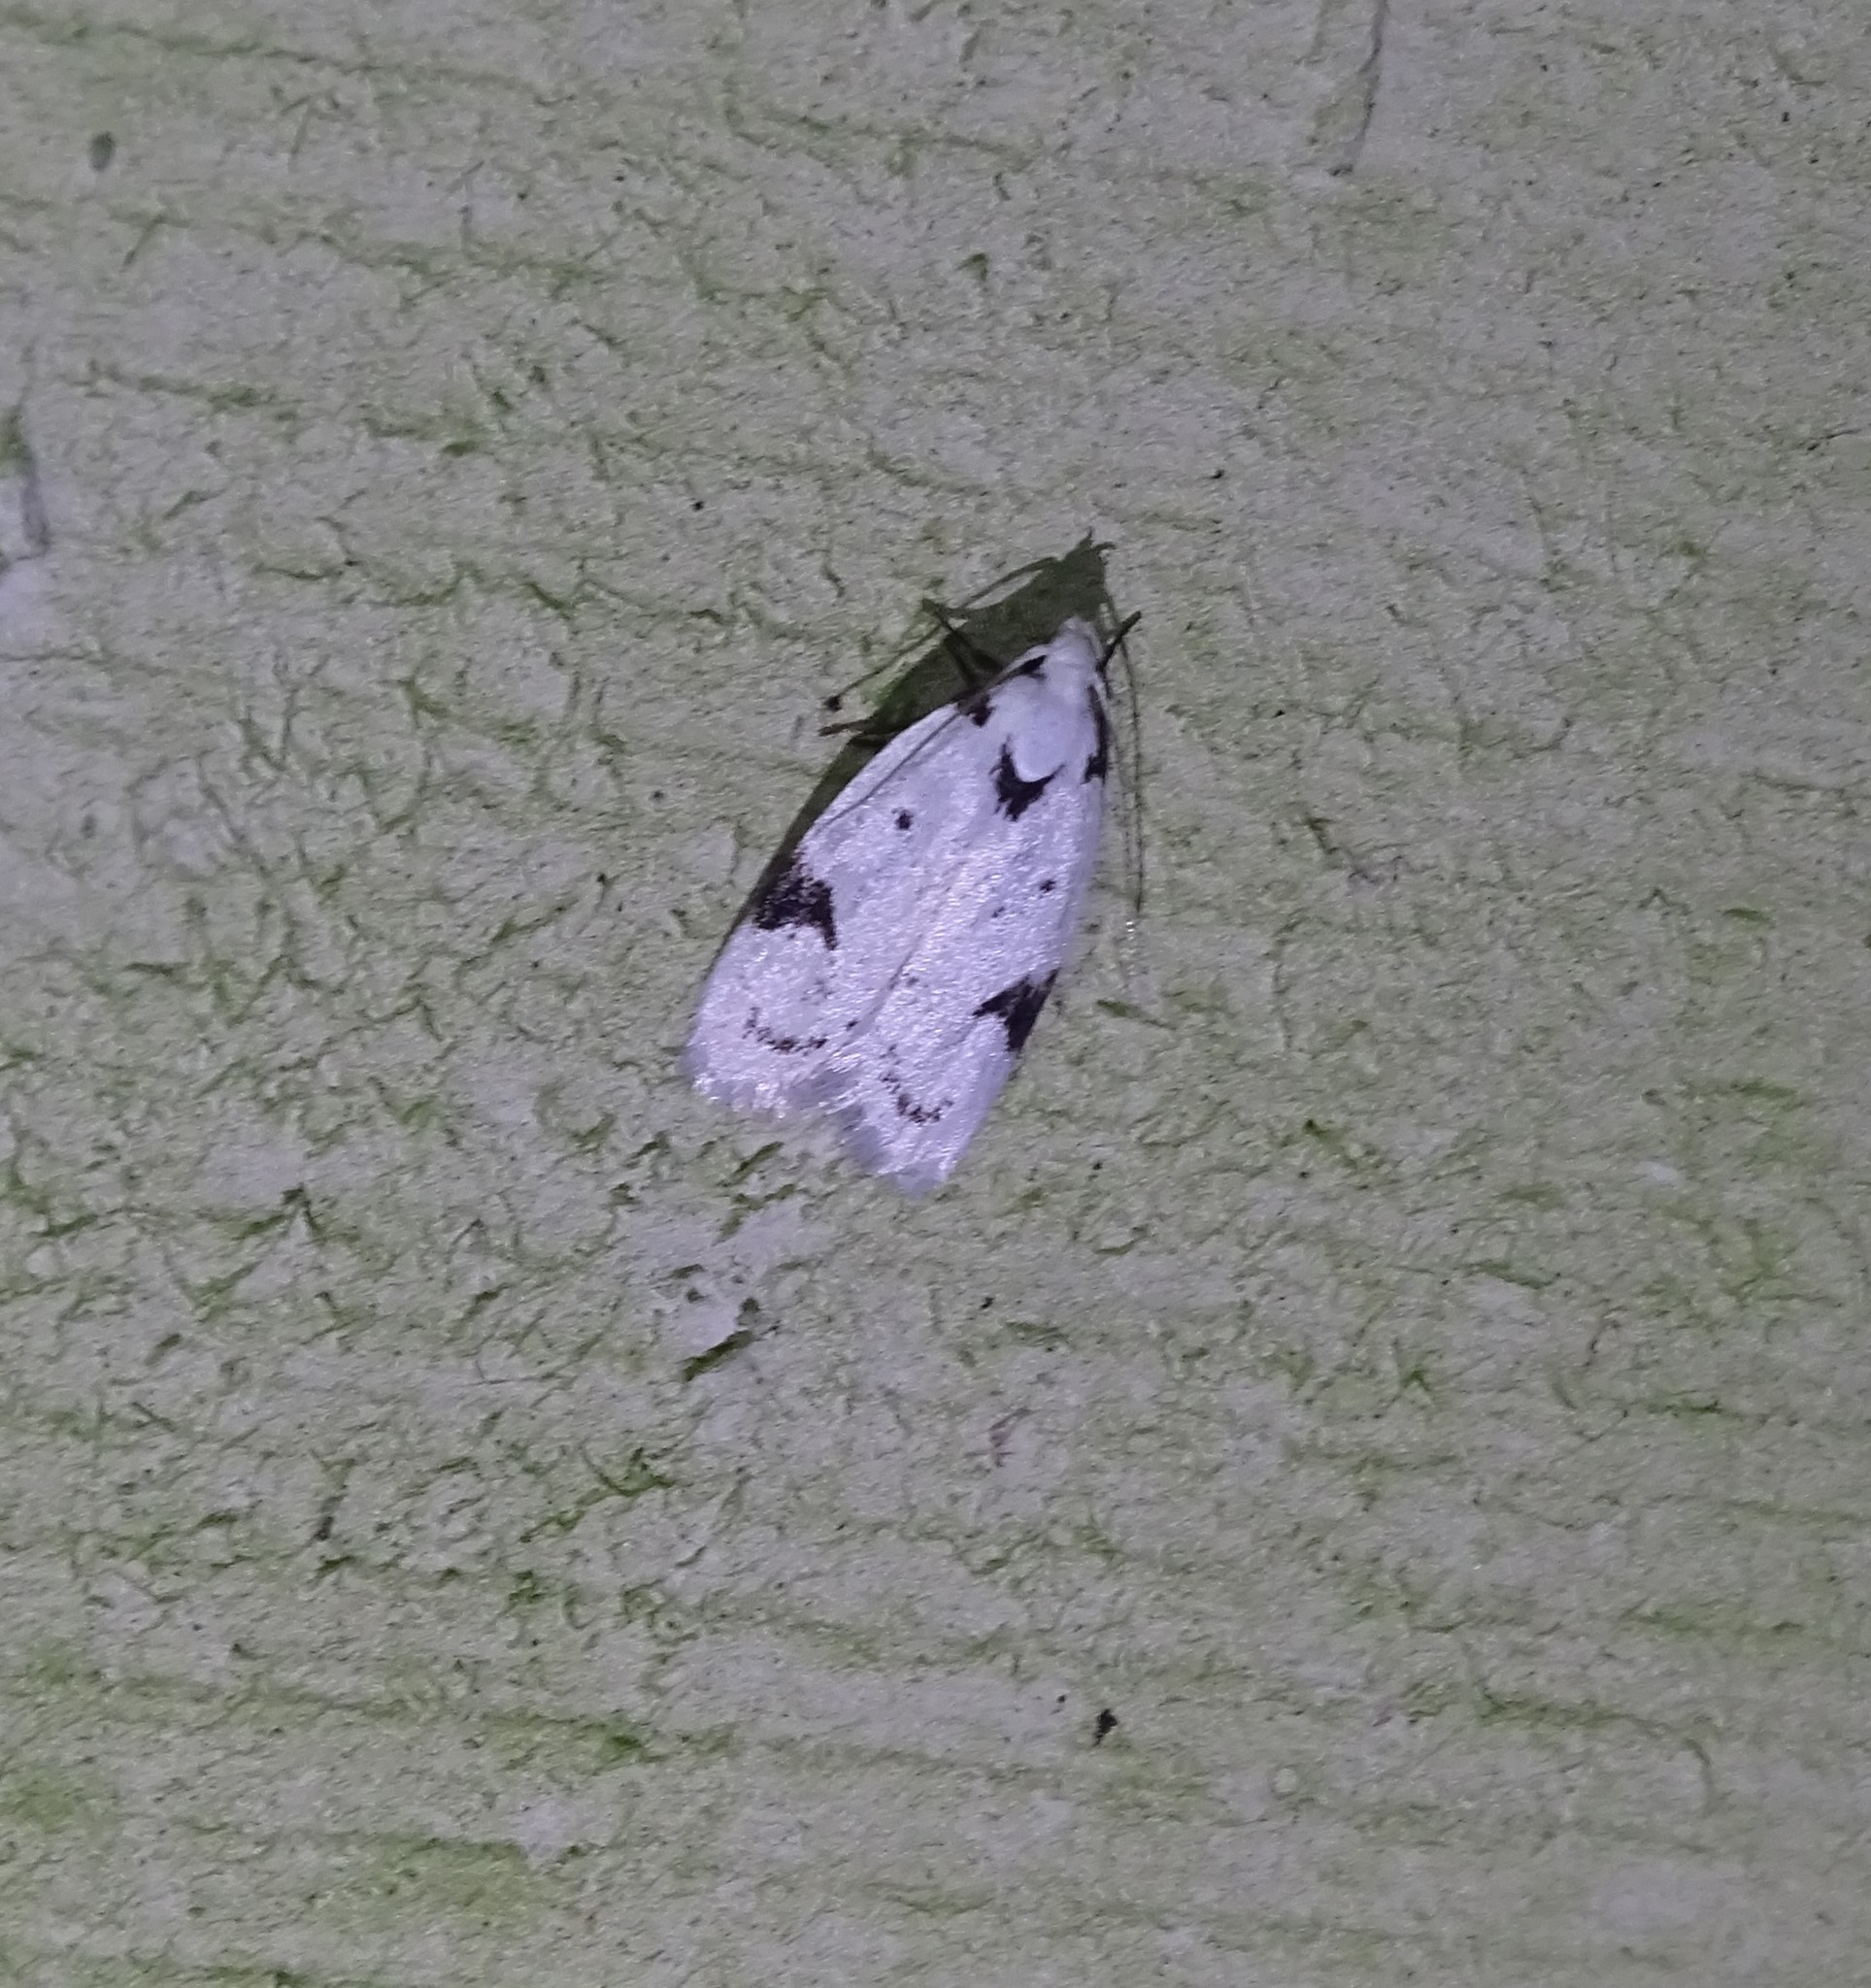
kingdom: Animalia
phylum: Arthropoda
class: Insecta
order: Lepidoptera
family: Oecophoridae
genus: Inga
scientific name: Inga sparsiciliella
